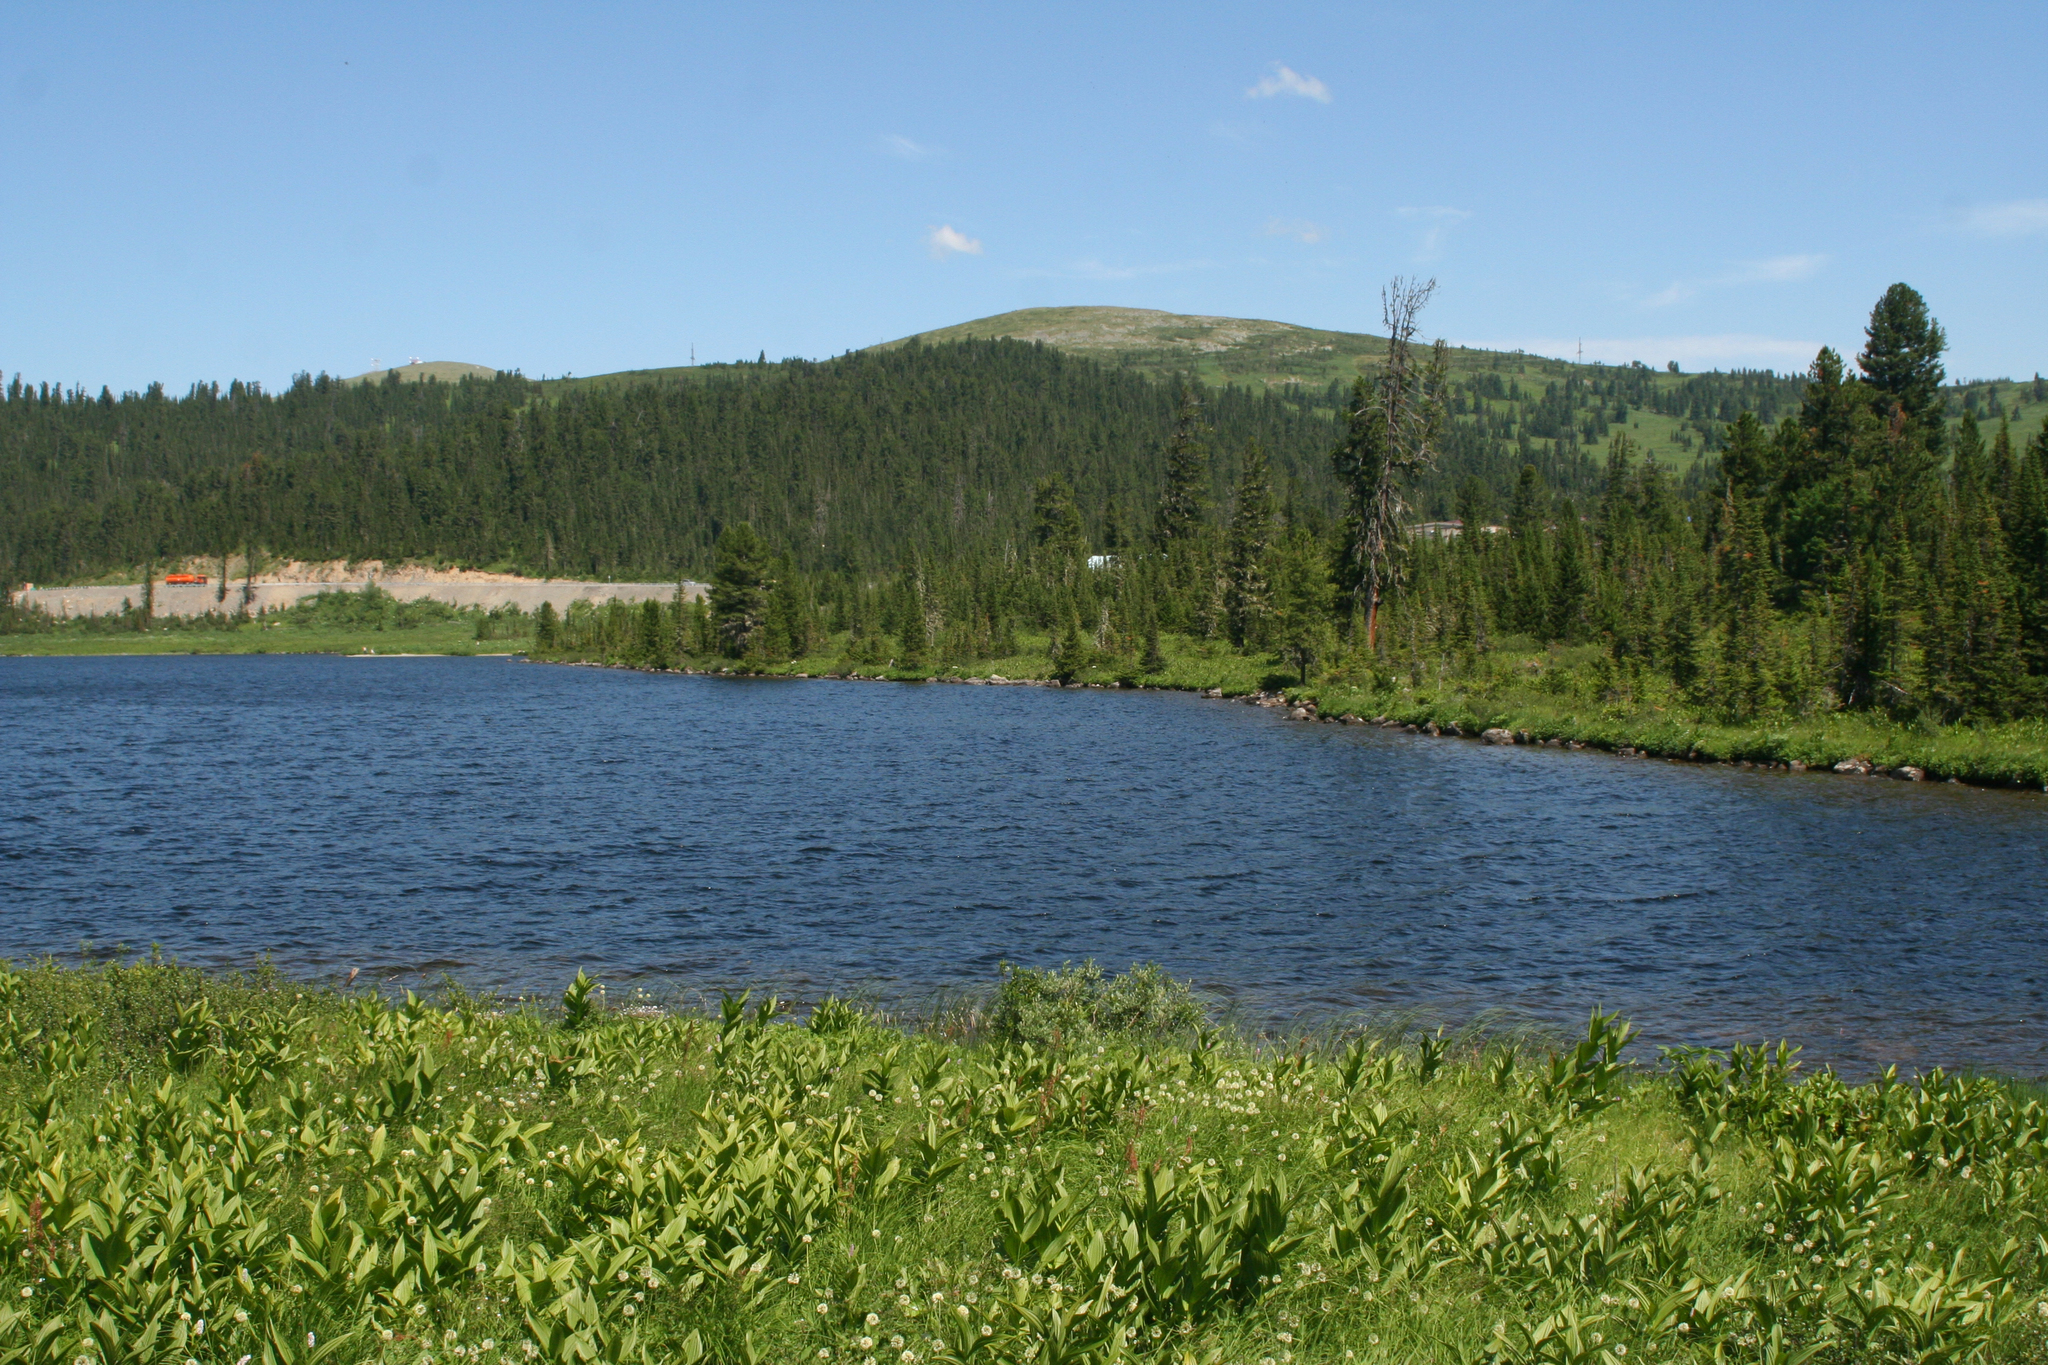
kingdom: Plantae
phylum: Tracheophyta
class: Pinopsida
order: Pinales
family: Pinaceae
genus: Abies
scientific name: Abies sibirica
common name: Siberian fir
